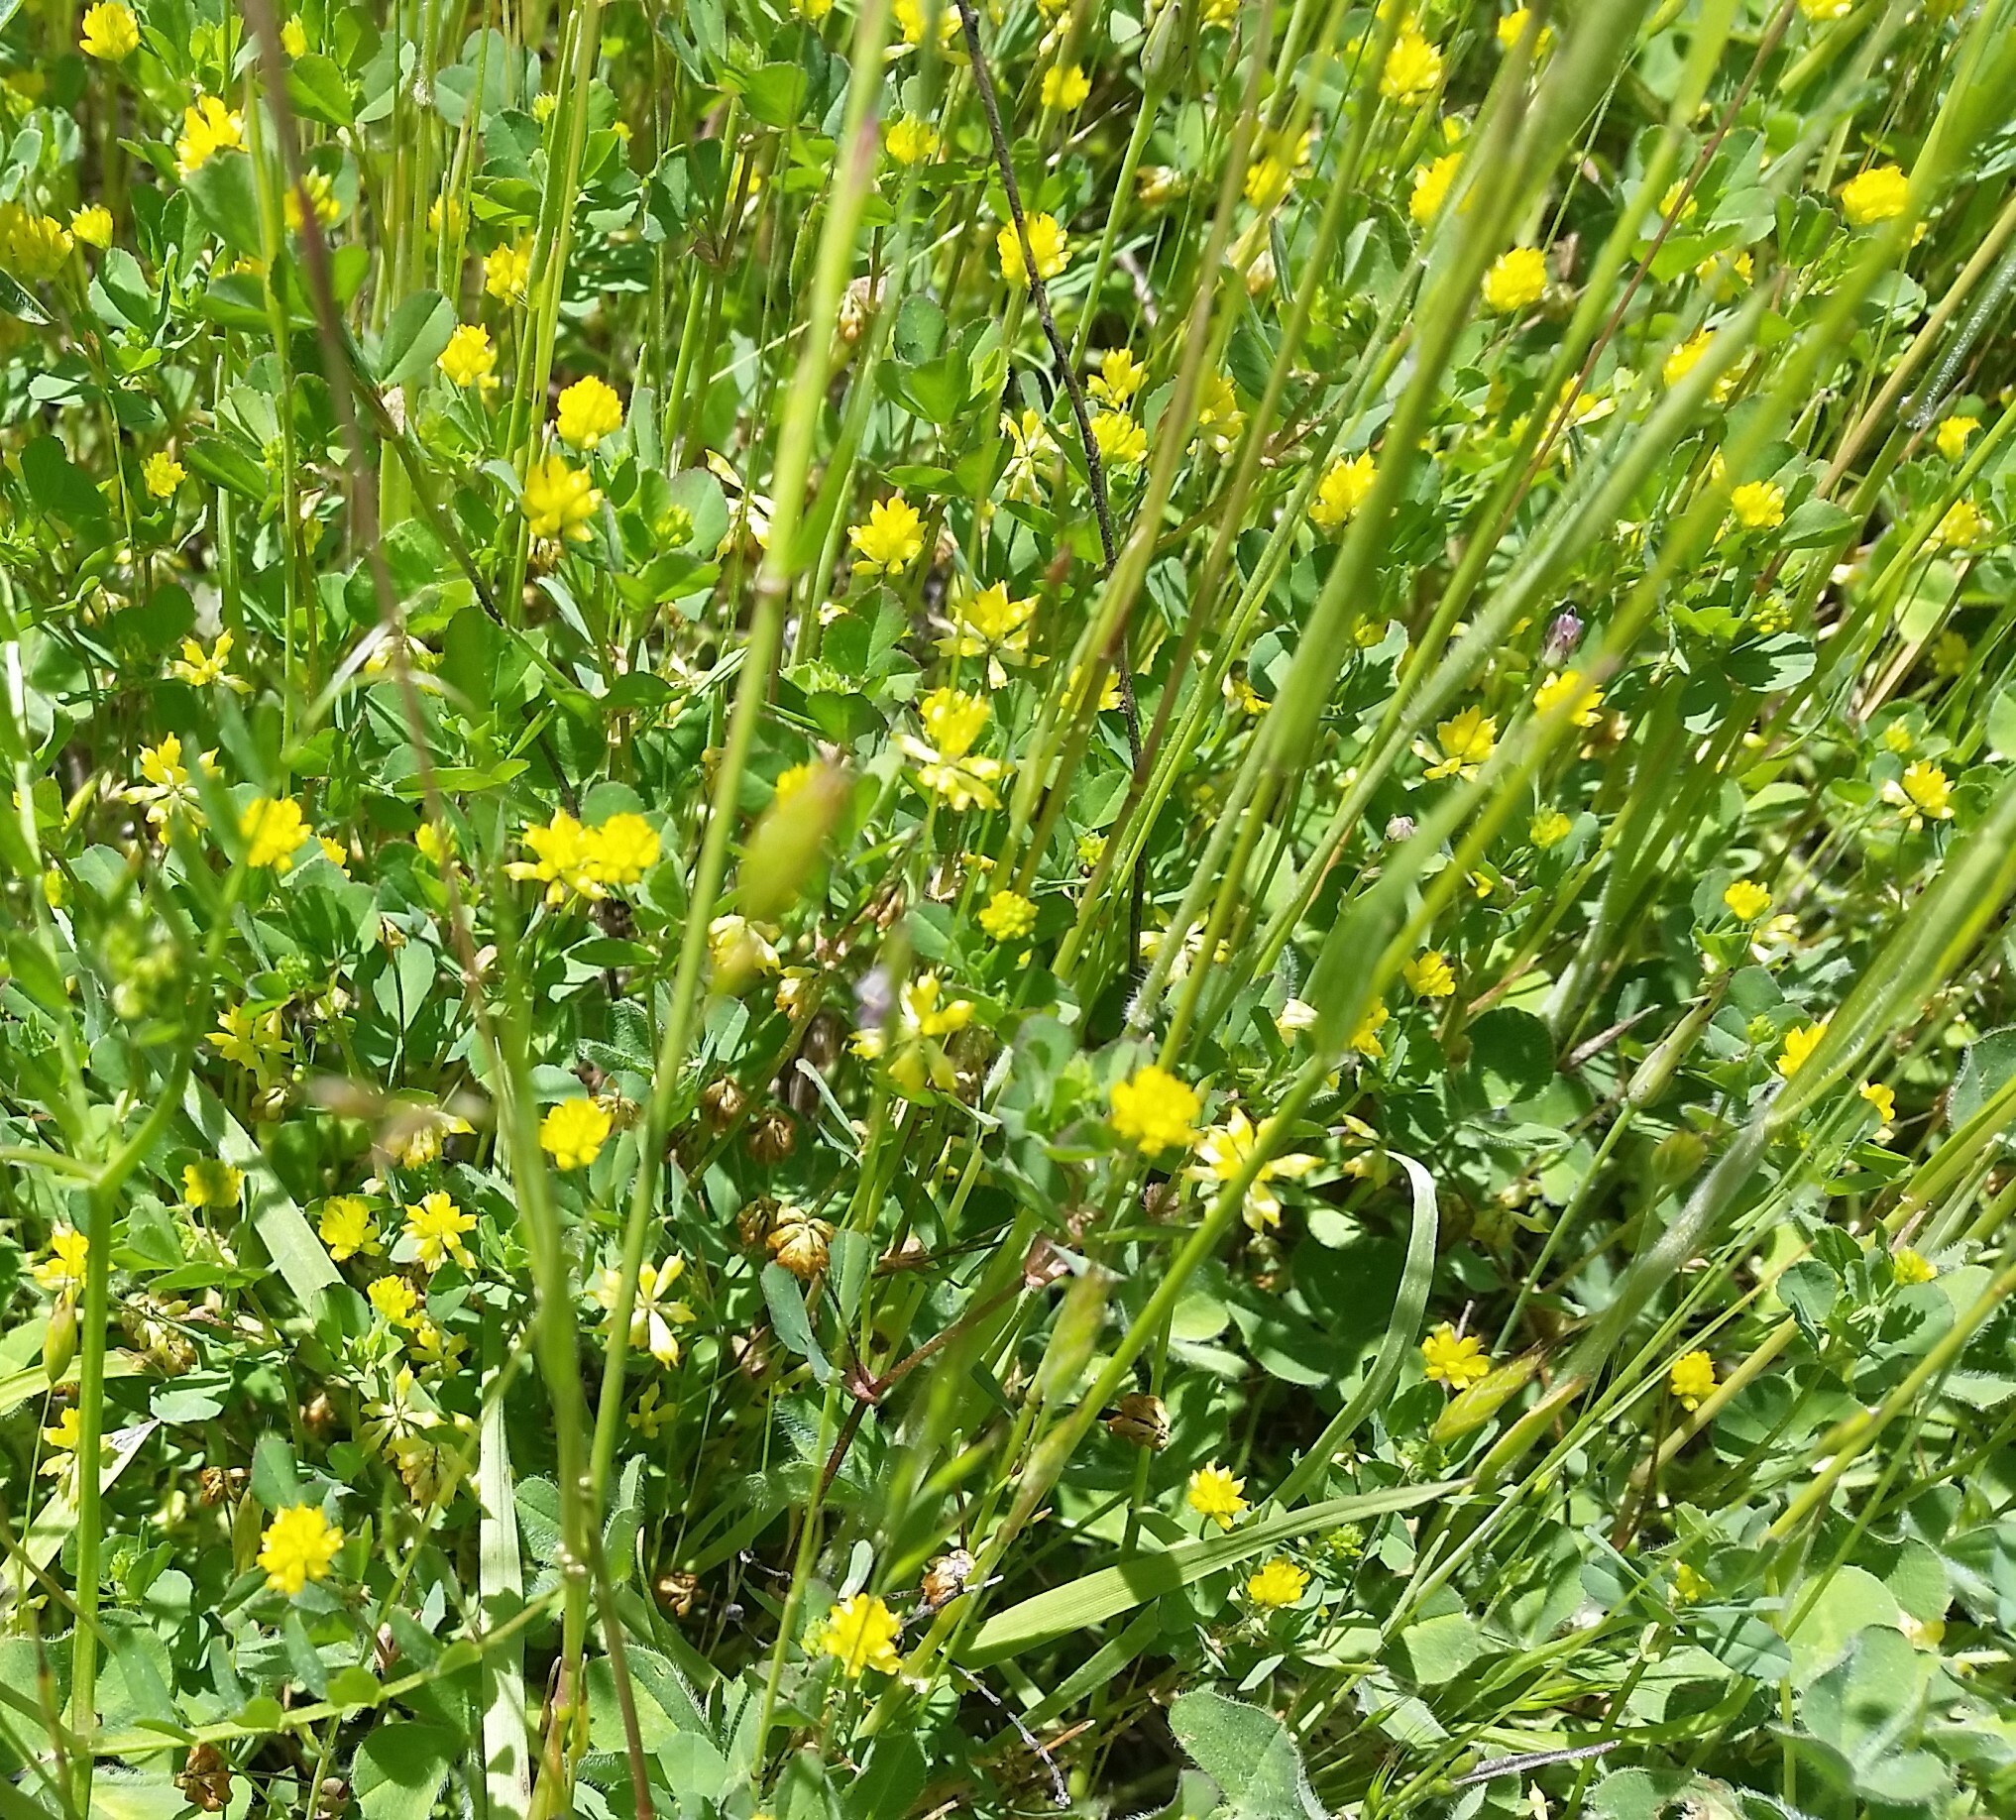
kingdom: Plantae
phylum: Tracheophyta
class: Magnoliopsida
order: Fabales
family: Fabaceae
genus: Trifolium
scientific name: Trifolium dubium
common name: Suckling clover
